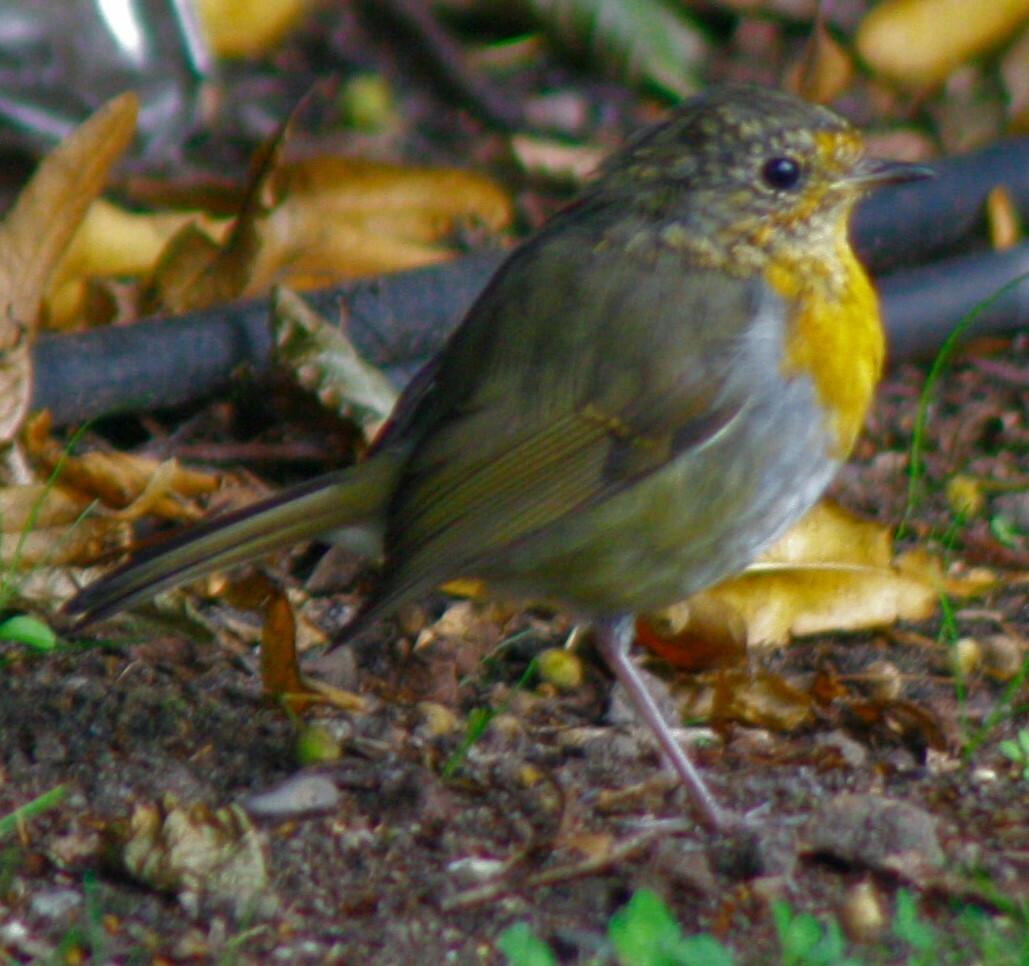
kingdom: Animalia
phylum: Chordata
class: Aves
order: Passeriformes
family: Muscicapidae
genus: Erithacus
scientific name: Erithacus rubecula
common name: European robin
